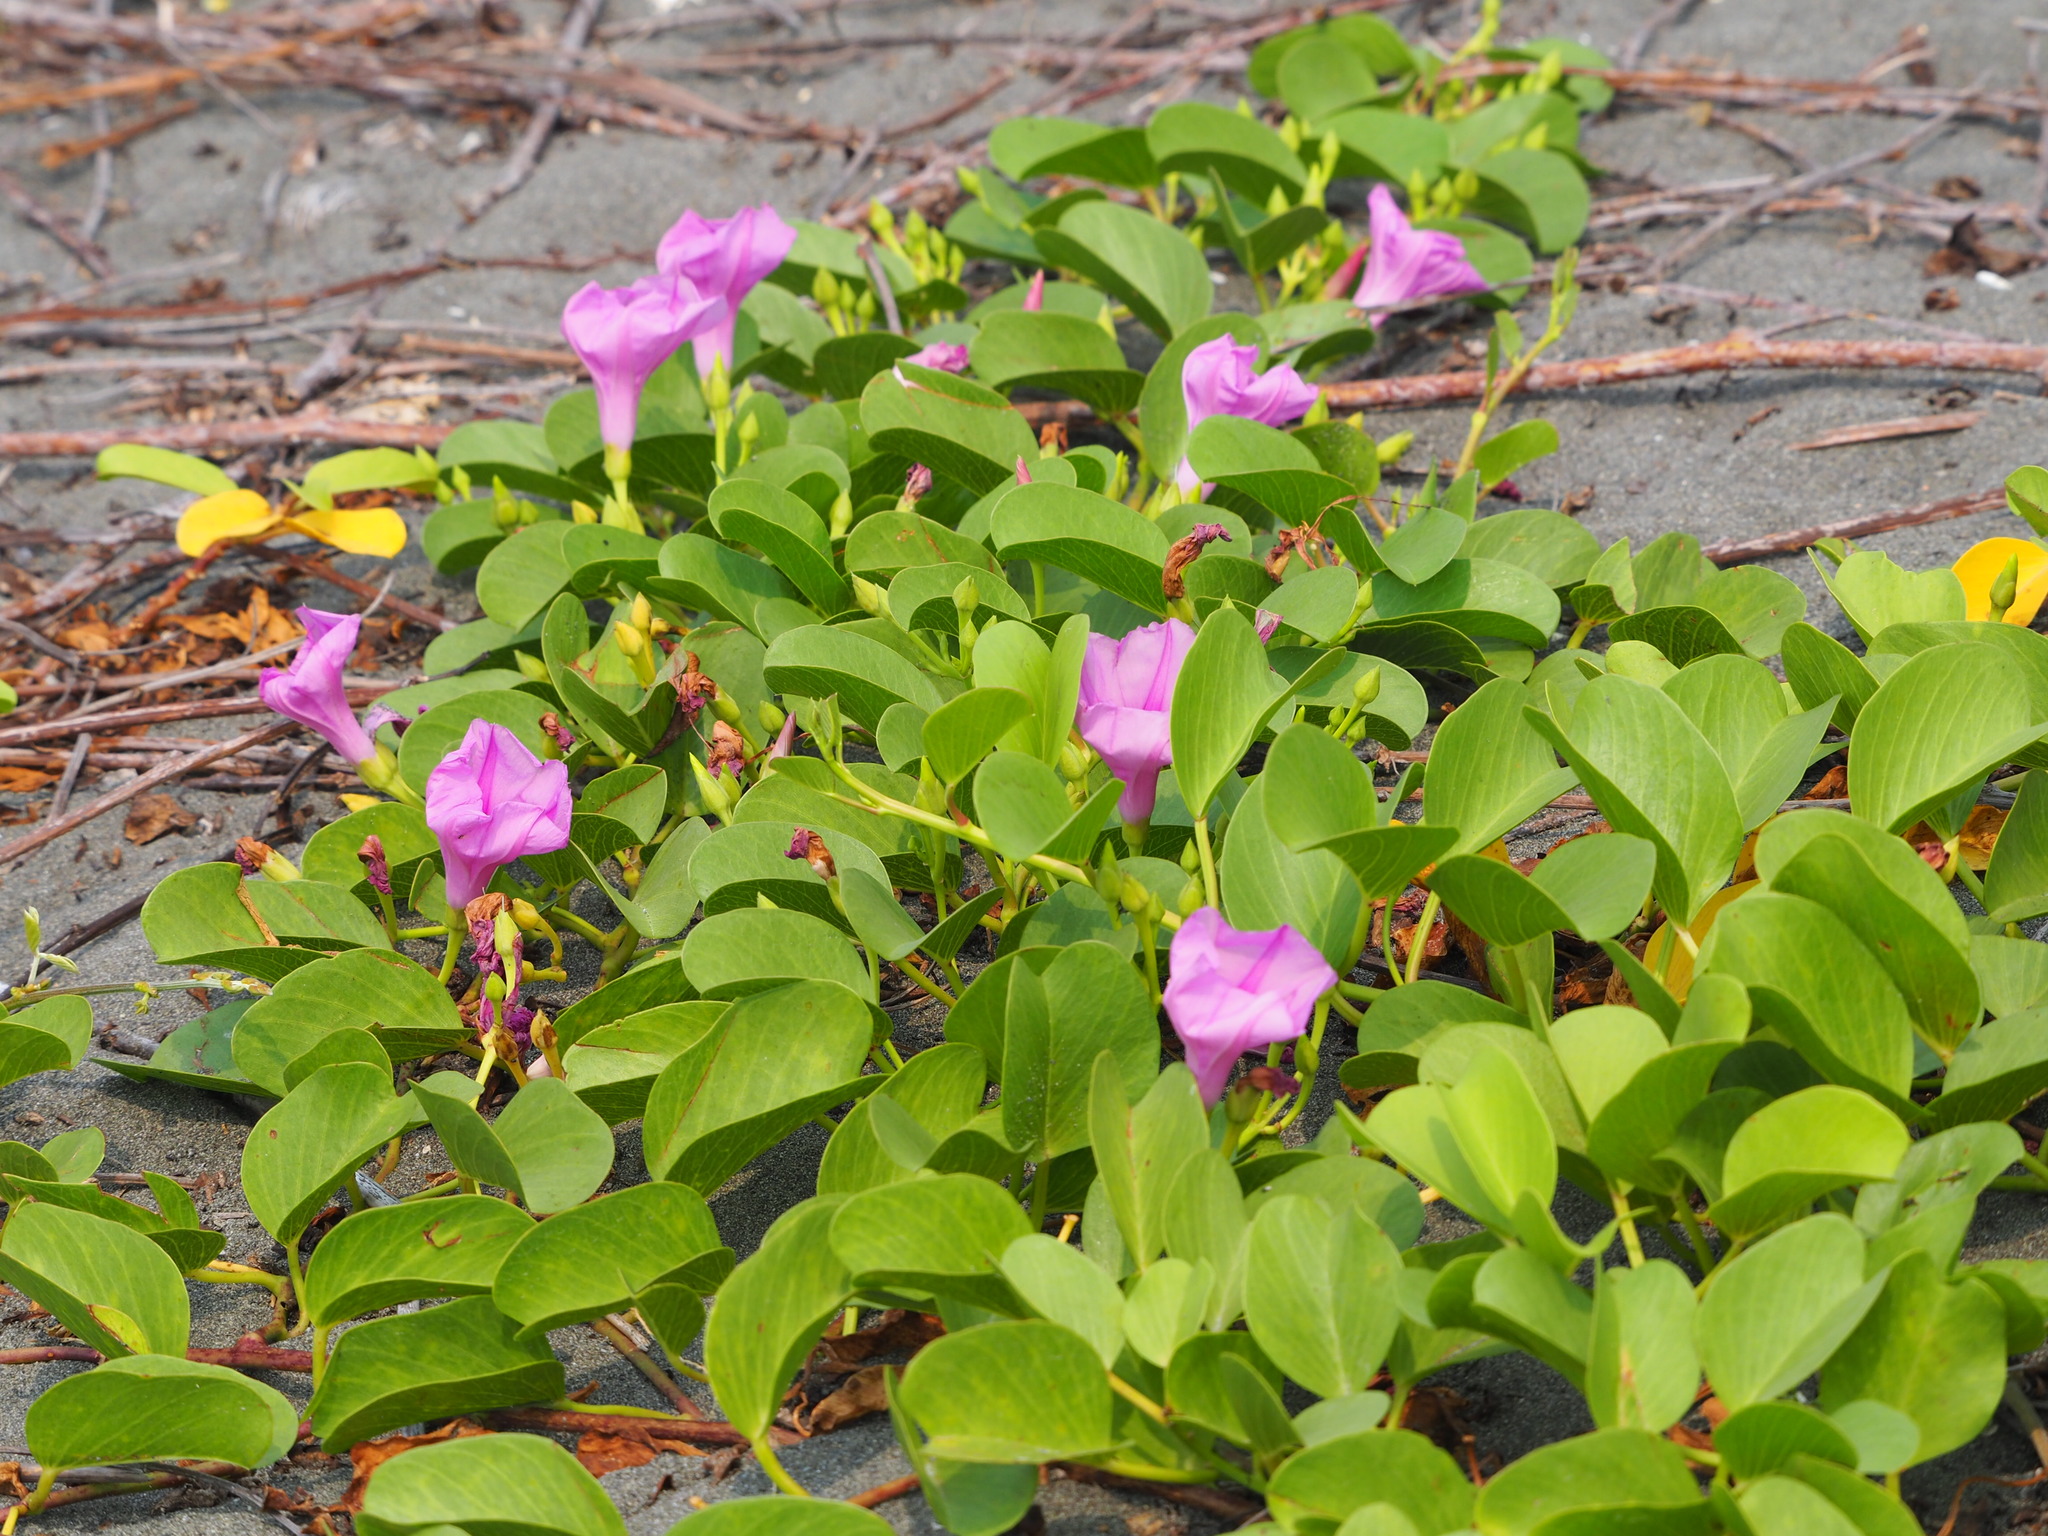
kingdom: Plantae
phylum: Tracheophyta
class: Magnoliopsida
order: Solanales
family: Convolvulaceae
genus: Ipomoea
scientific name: Ipomoea pes-caprae
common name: Beach morning glory
